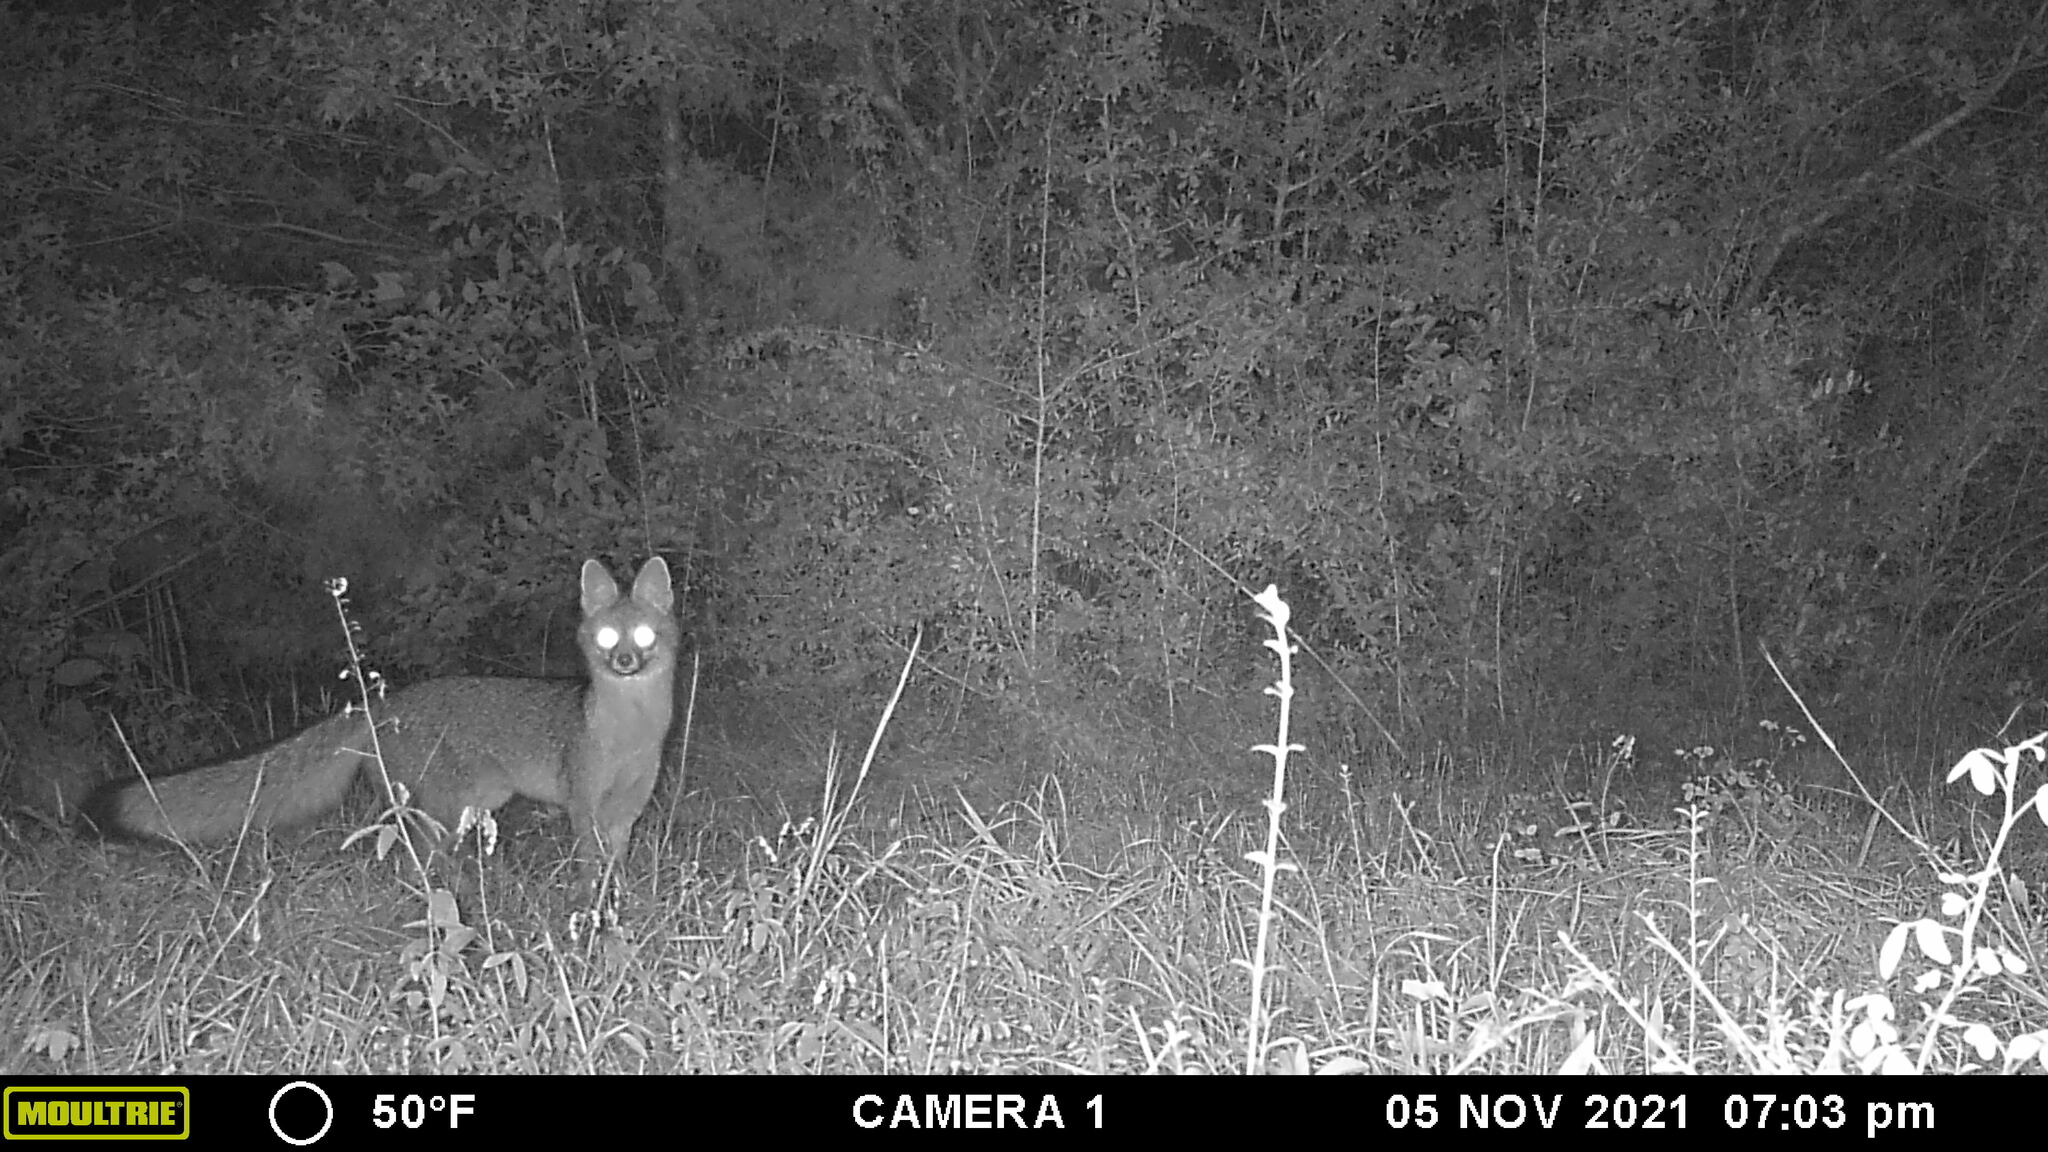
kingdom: Animalia
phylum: Chordata
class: Mammalia
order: Carnivora
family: Canidae
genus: Urocyon
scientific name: Urocyon cinereoargenteus
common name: Gray fox
